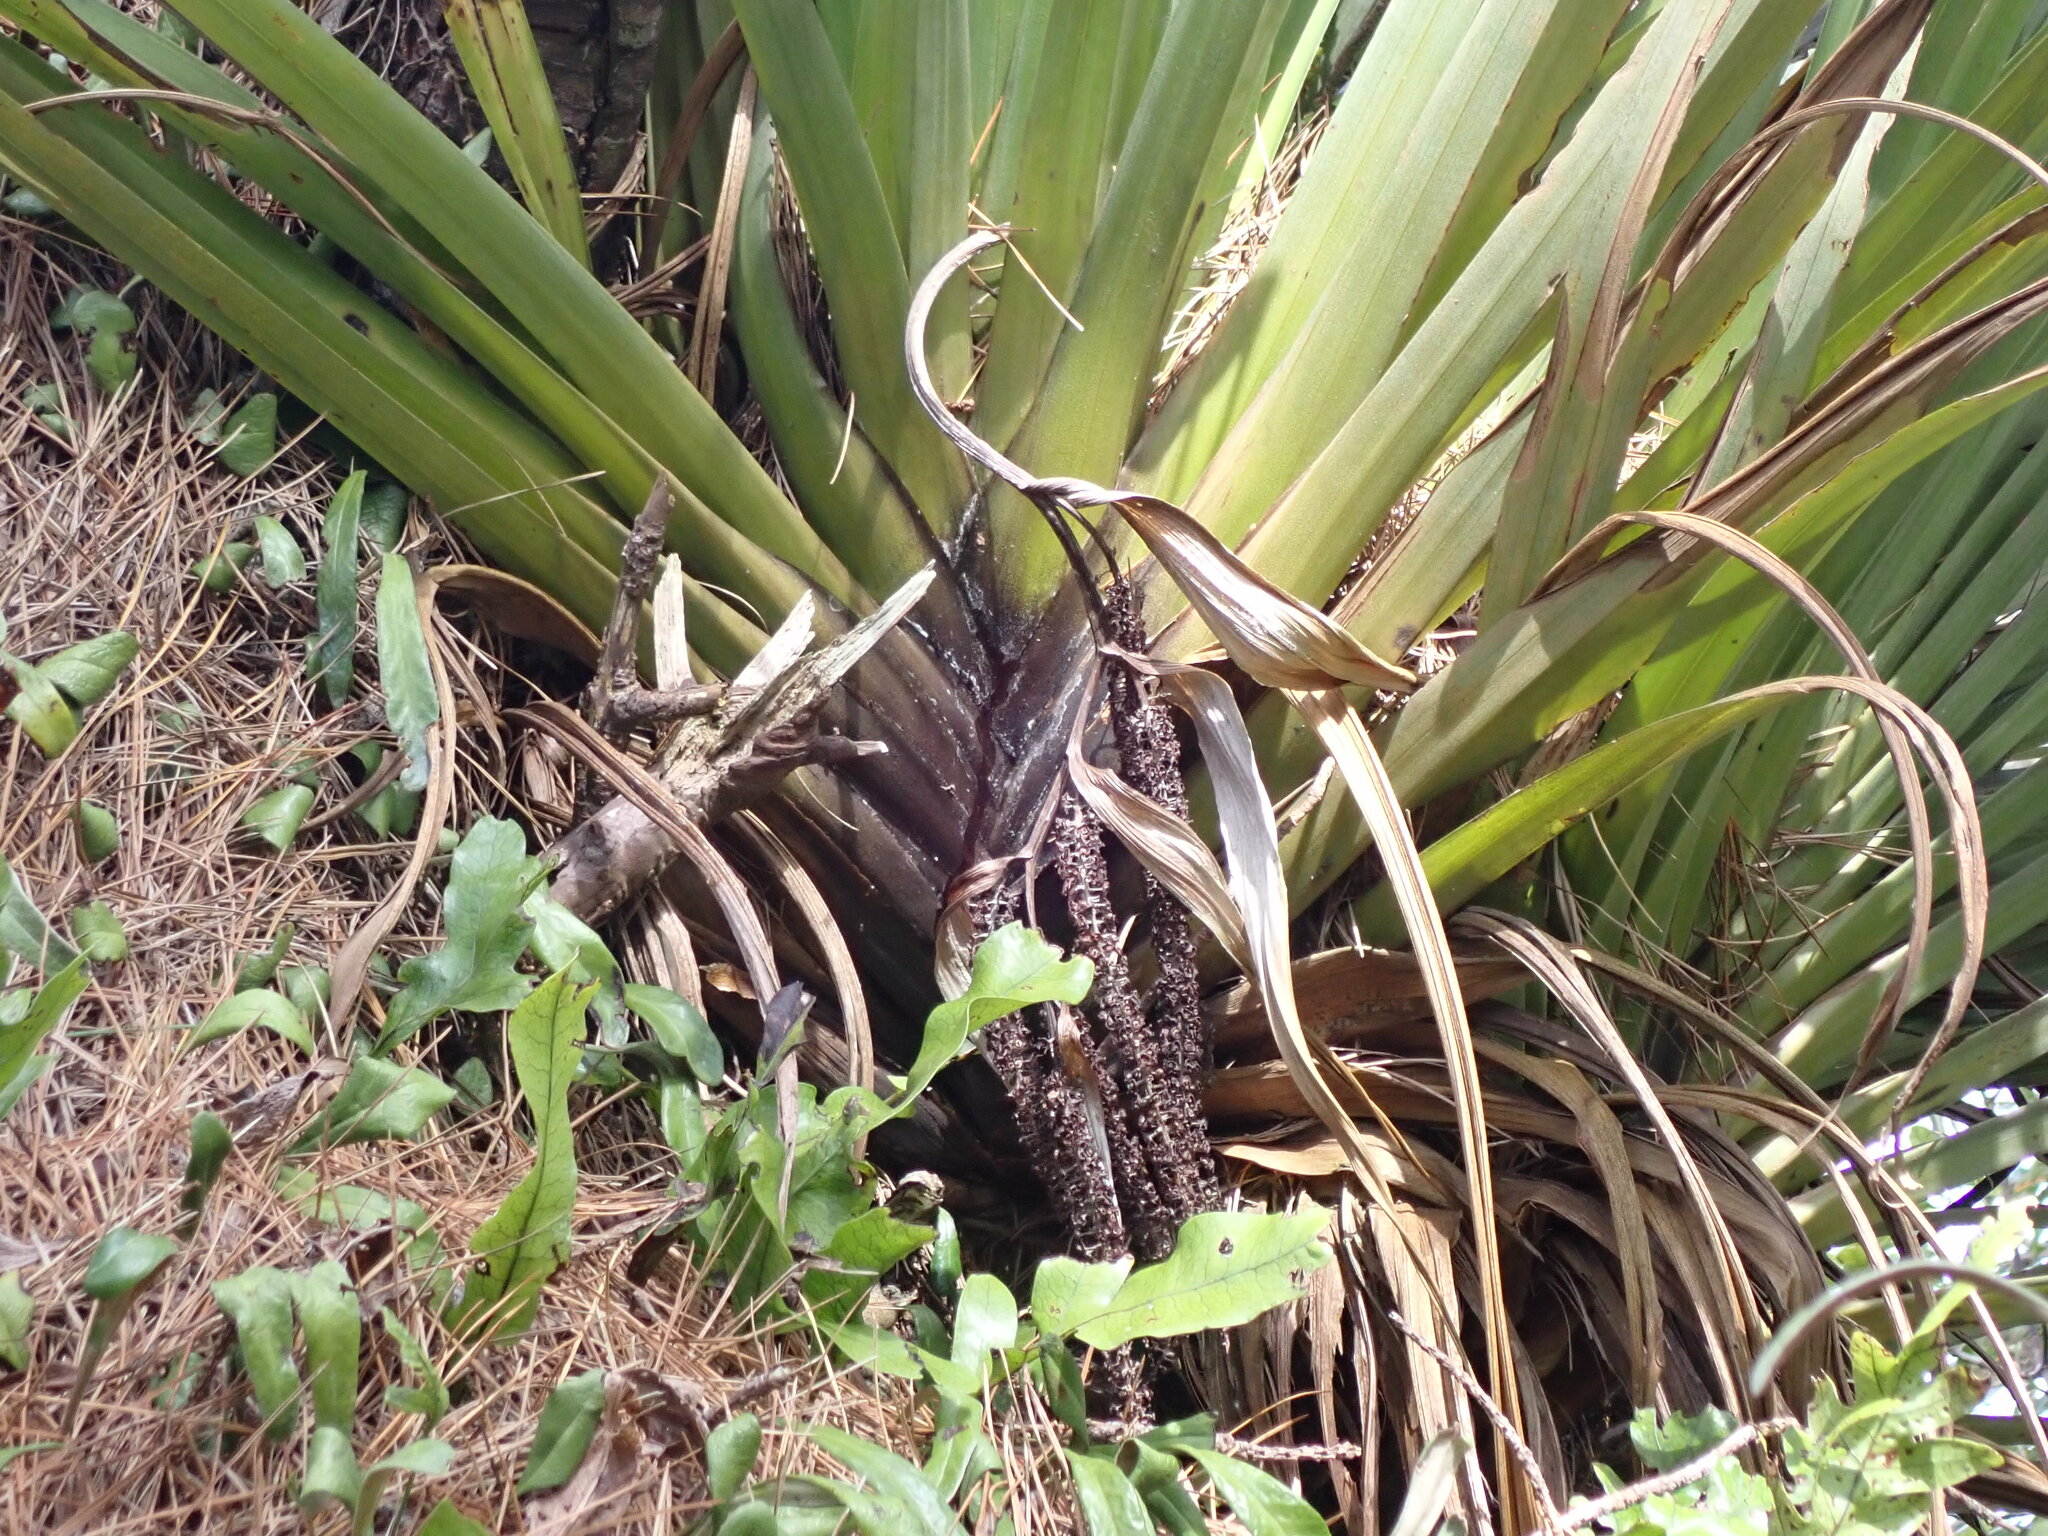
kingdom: Plantae
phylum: Tracheophyta
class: Liliopsida
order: Asparagales
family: Asteliaceae
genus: Astelia
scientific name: Astelia hastata
